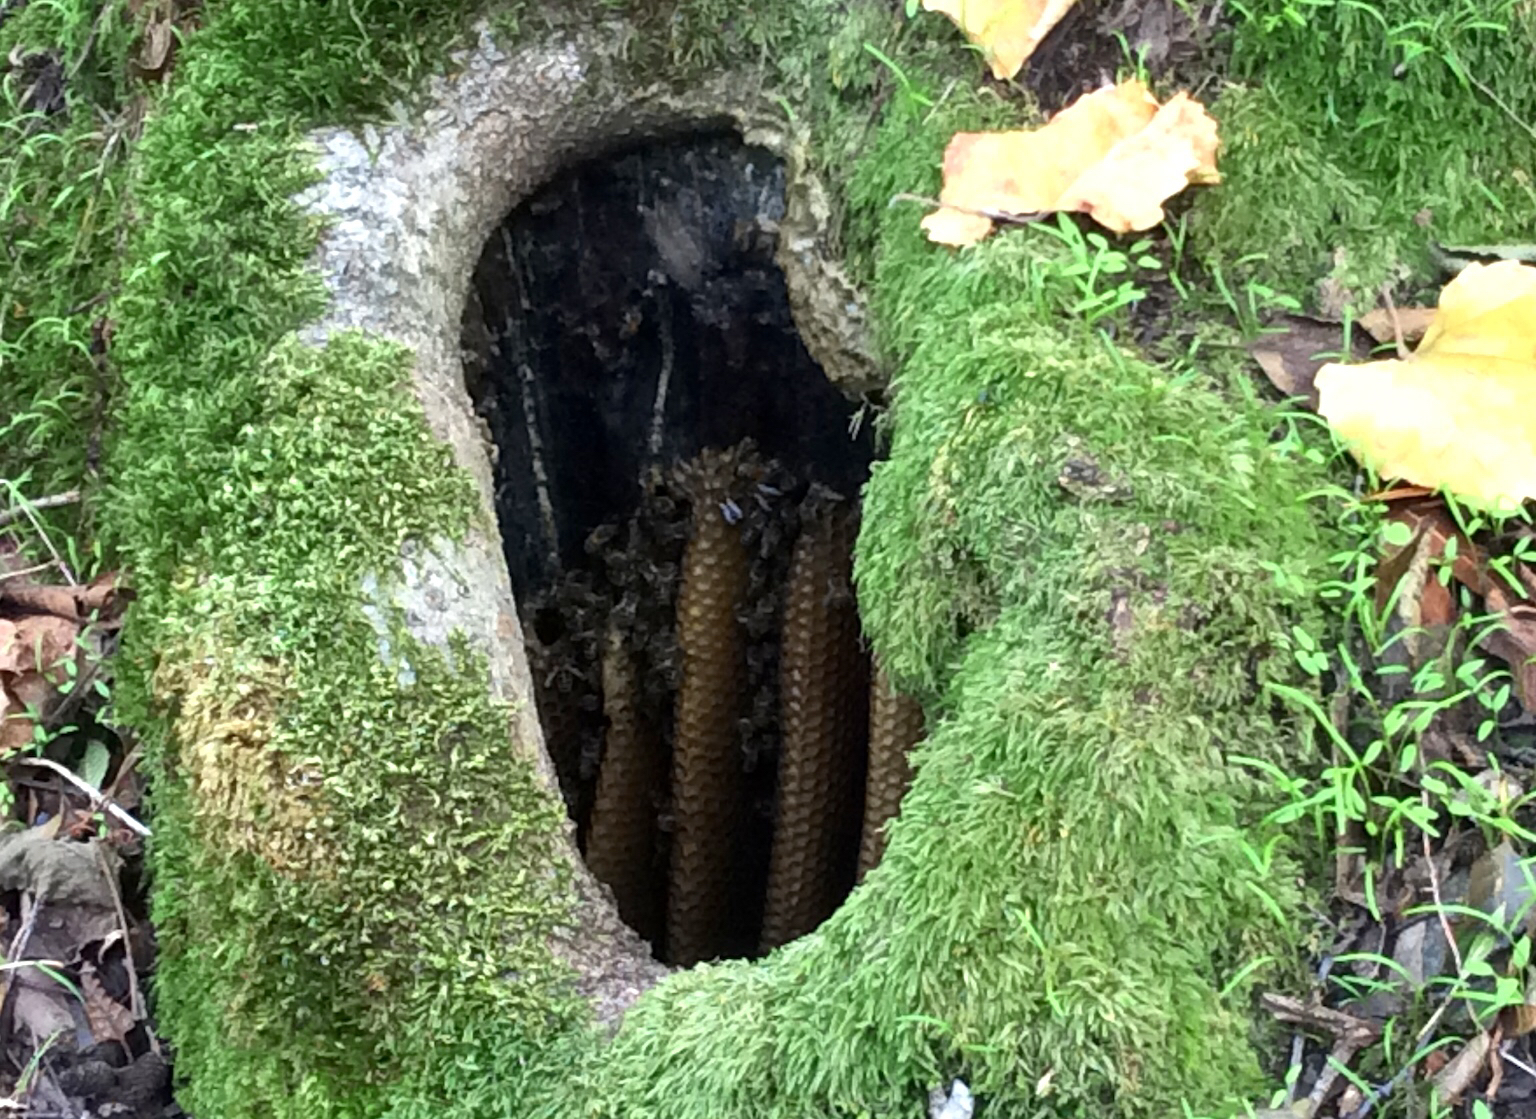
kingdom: Animalia
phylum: Arthropoda
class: Insecta
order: Hymenoptera
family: Apidae
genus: Apis
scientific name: Apis mellifera
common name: Honey bee
